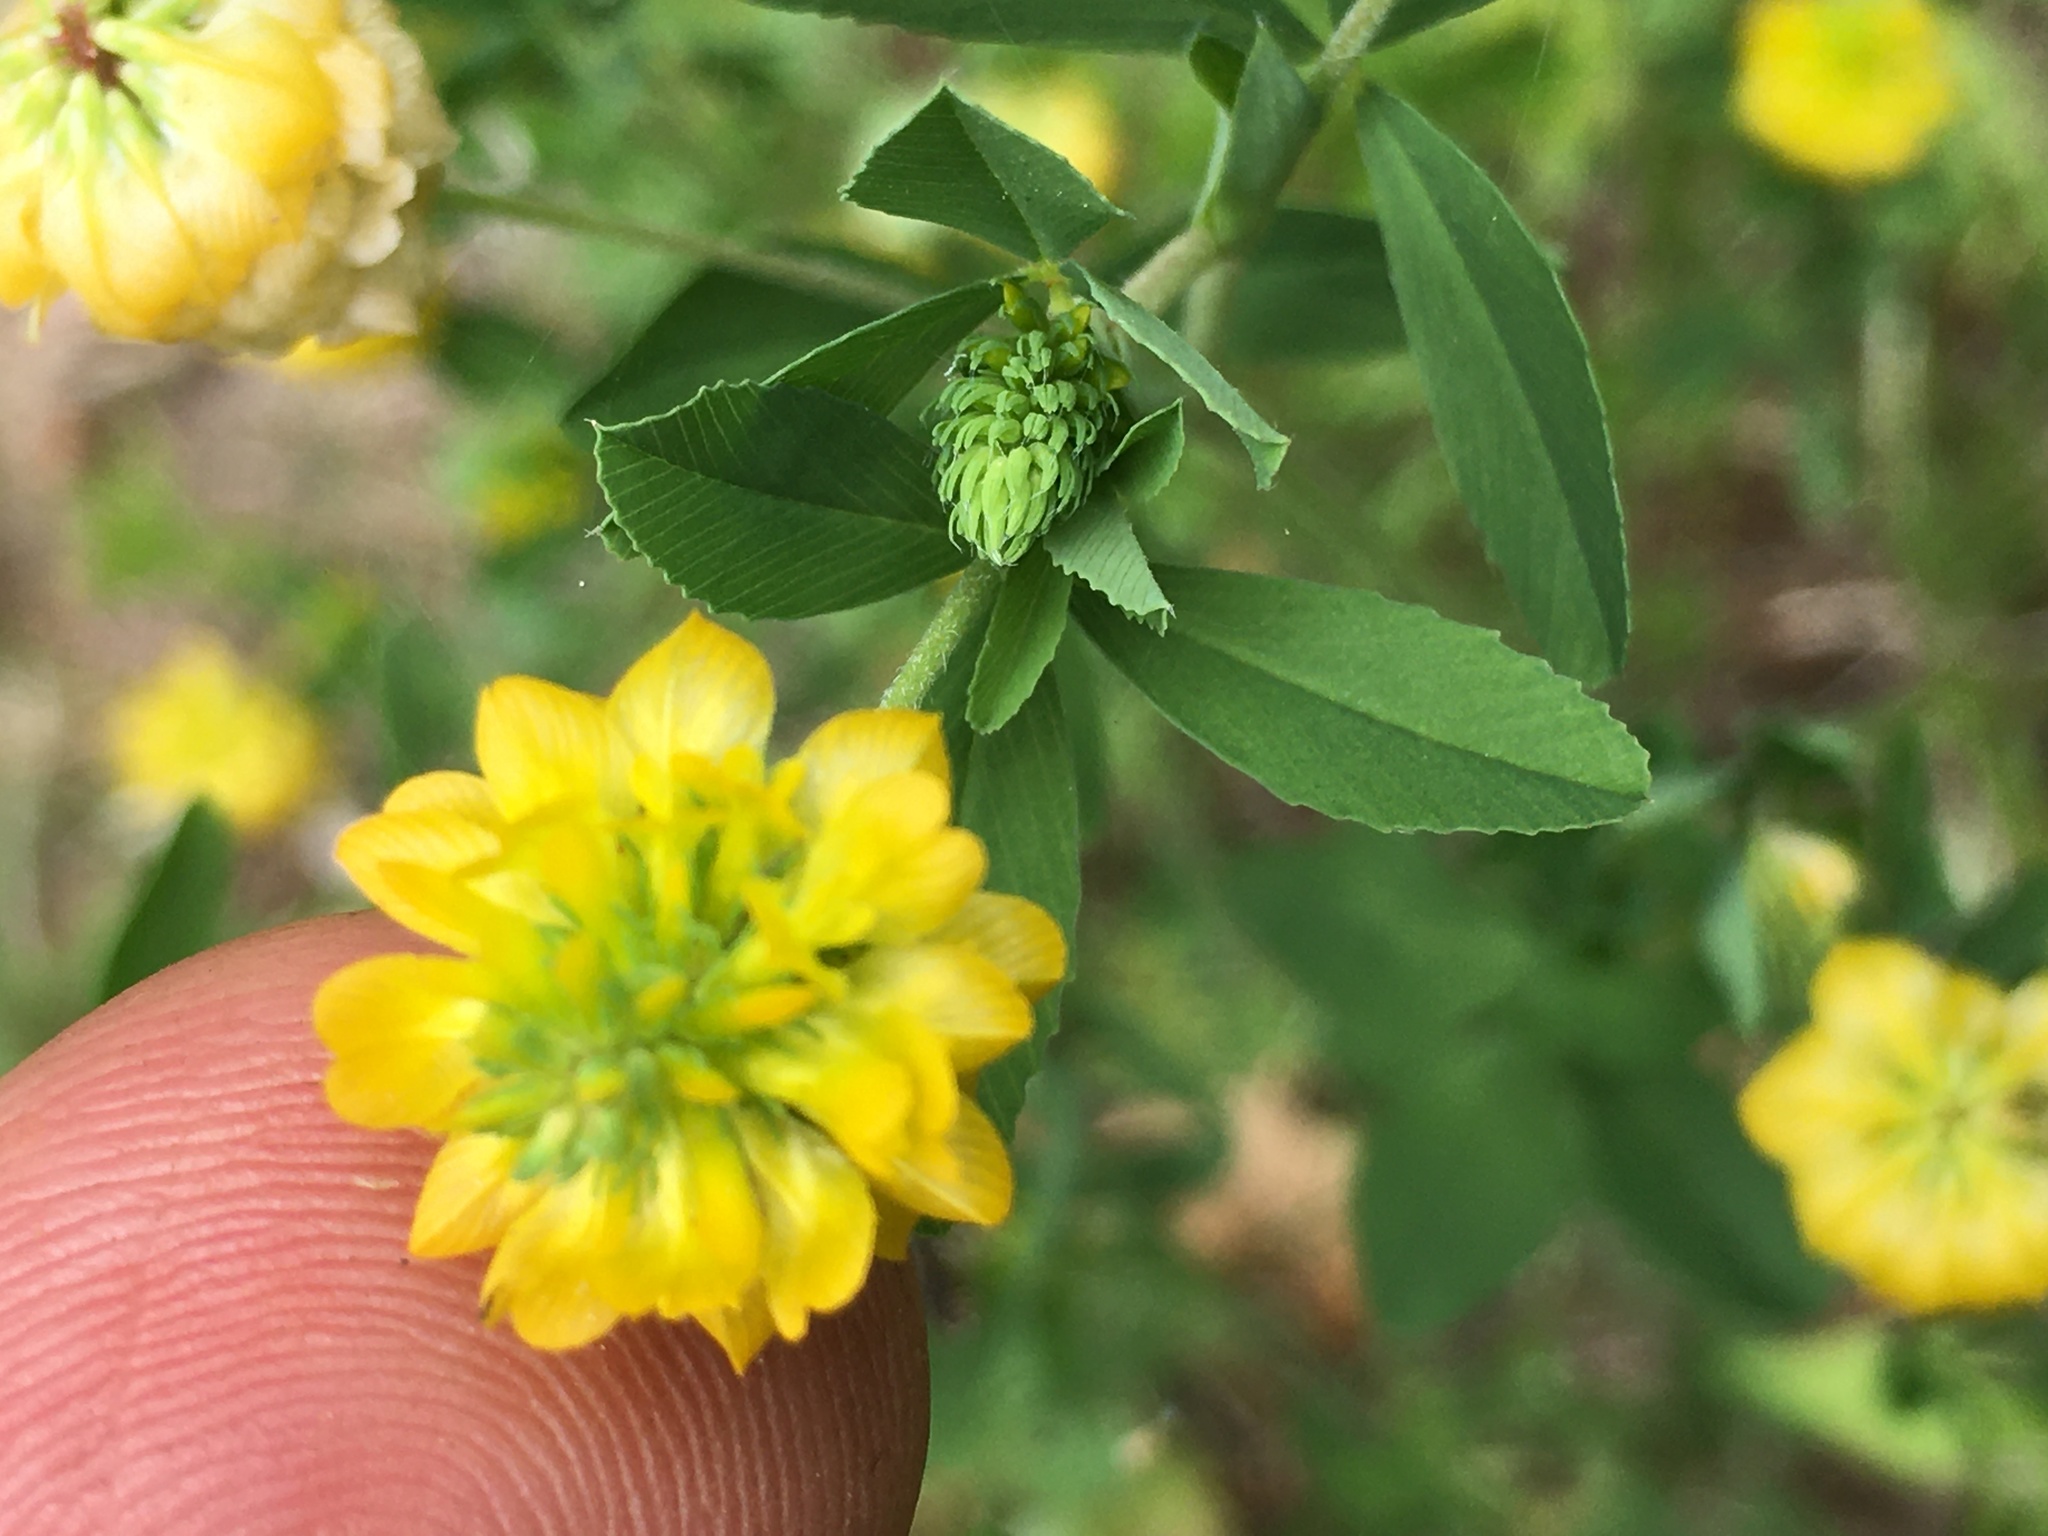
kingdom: Plantae
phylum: Tracheophyta
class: Magnoliopsida
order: Fabales
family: Fabaceae
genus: Trifolium
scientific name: Trifolium aureum
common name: Golden clover
